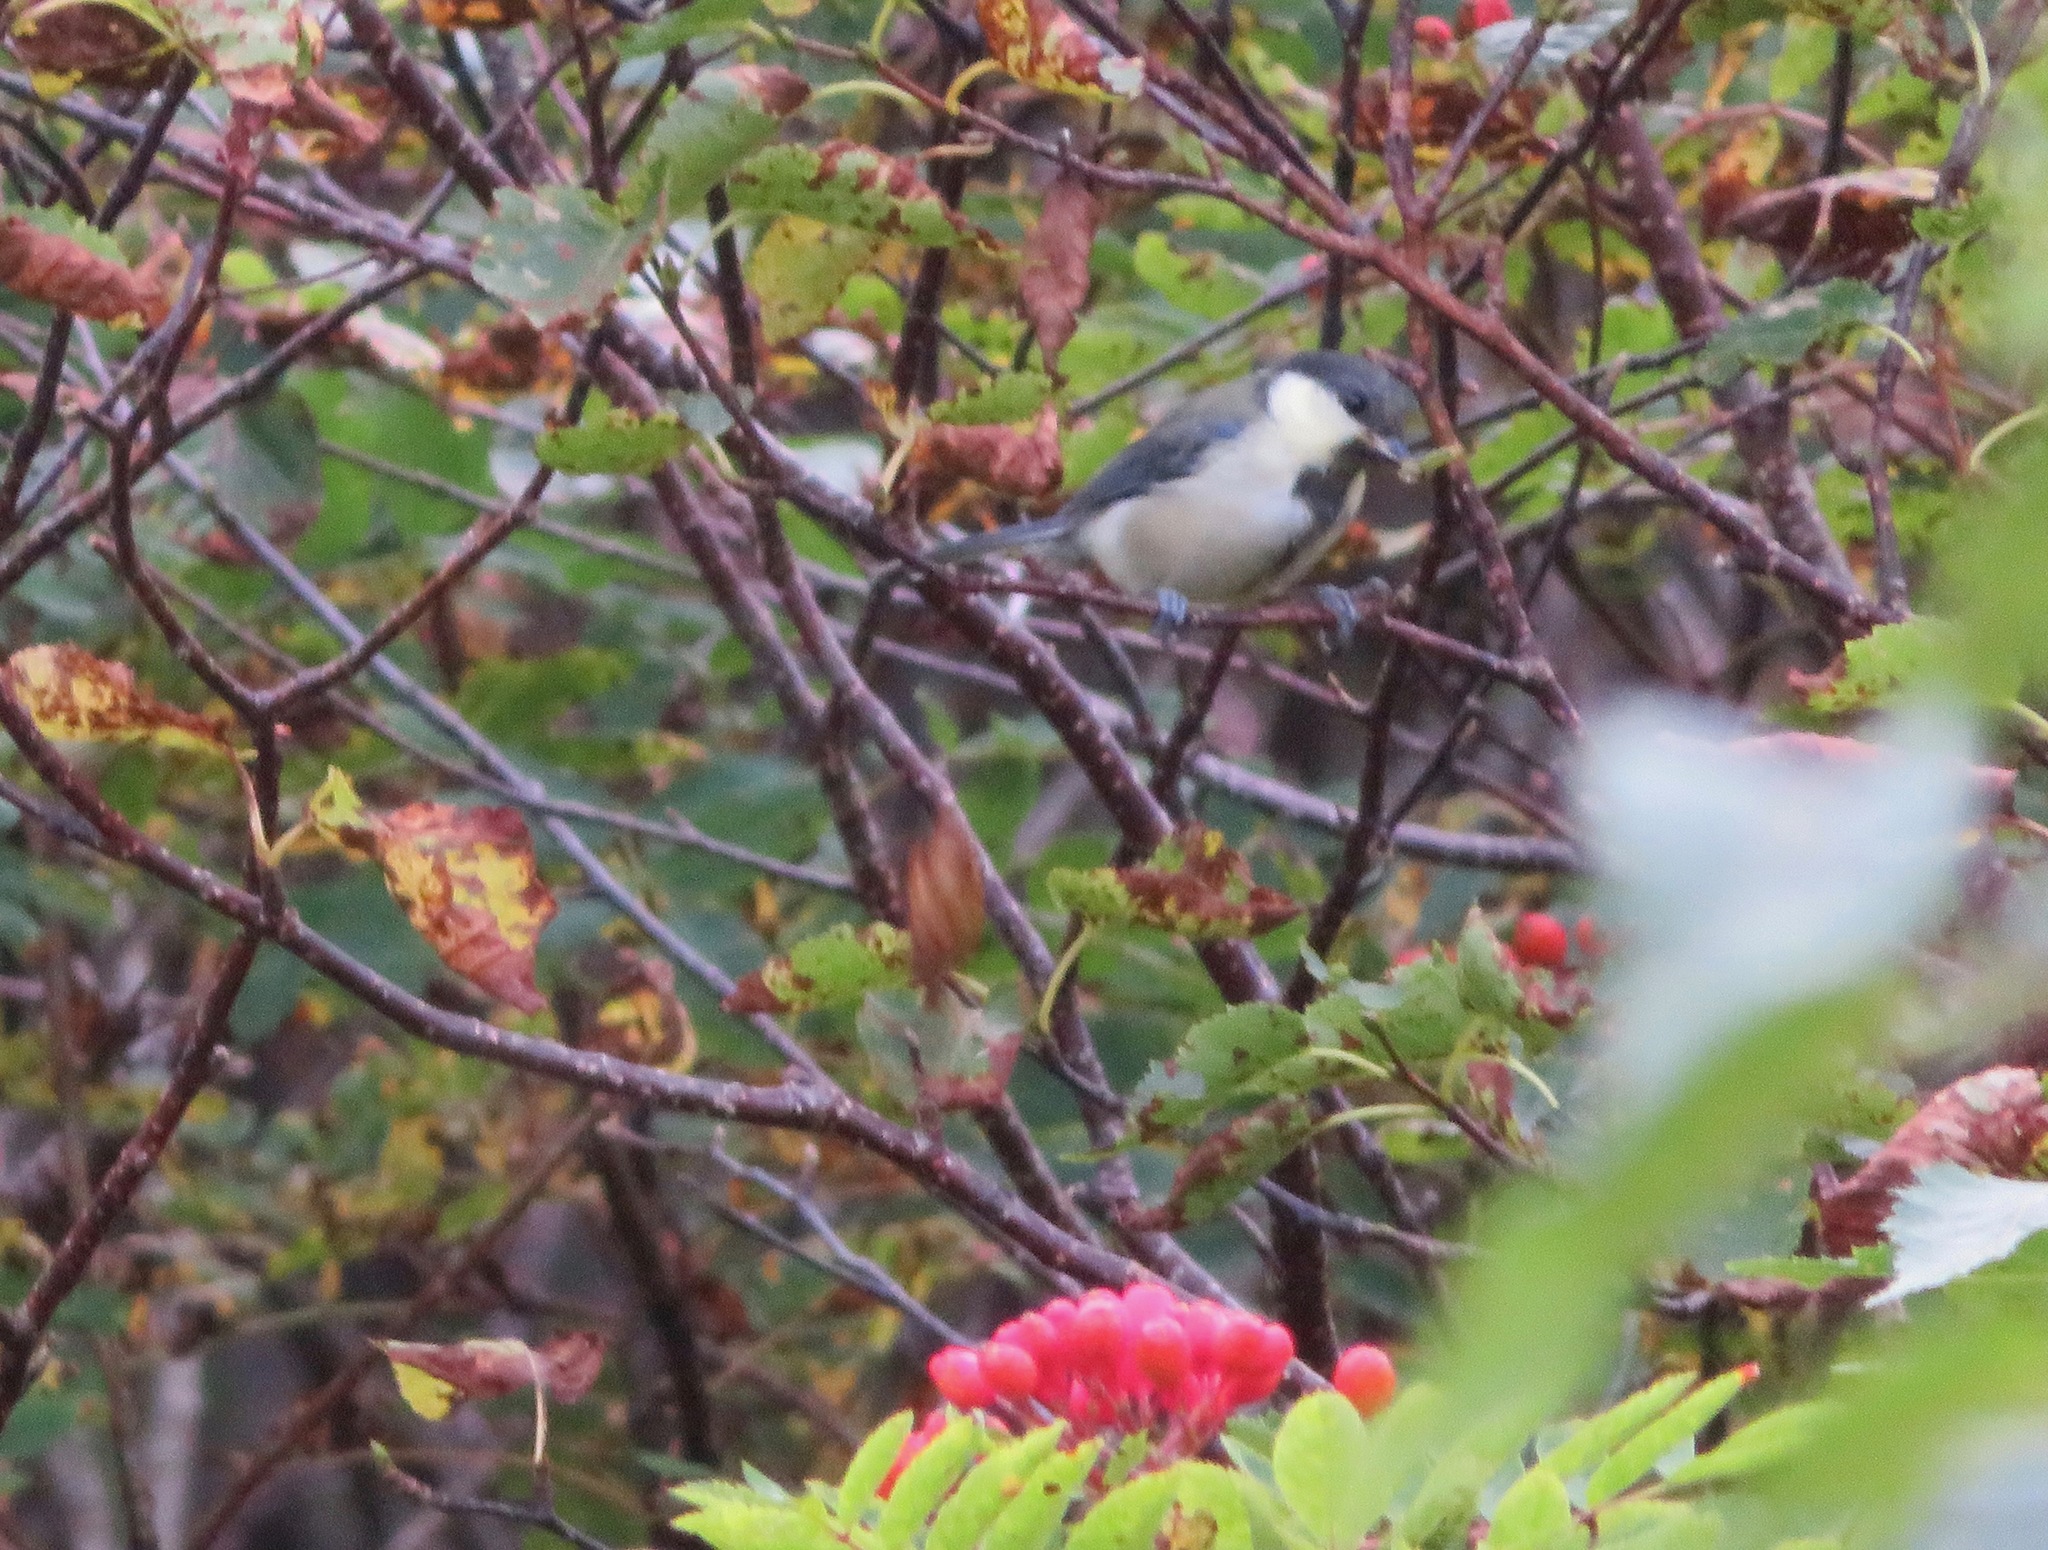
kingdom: Animalia
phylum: Chordata
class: Aves
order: Passeriformes
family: Paridae
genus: Parus
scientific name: Parus minor
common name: Japanese tit
